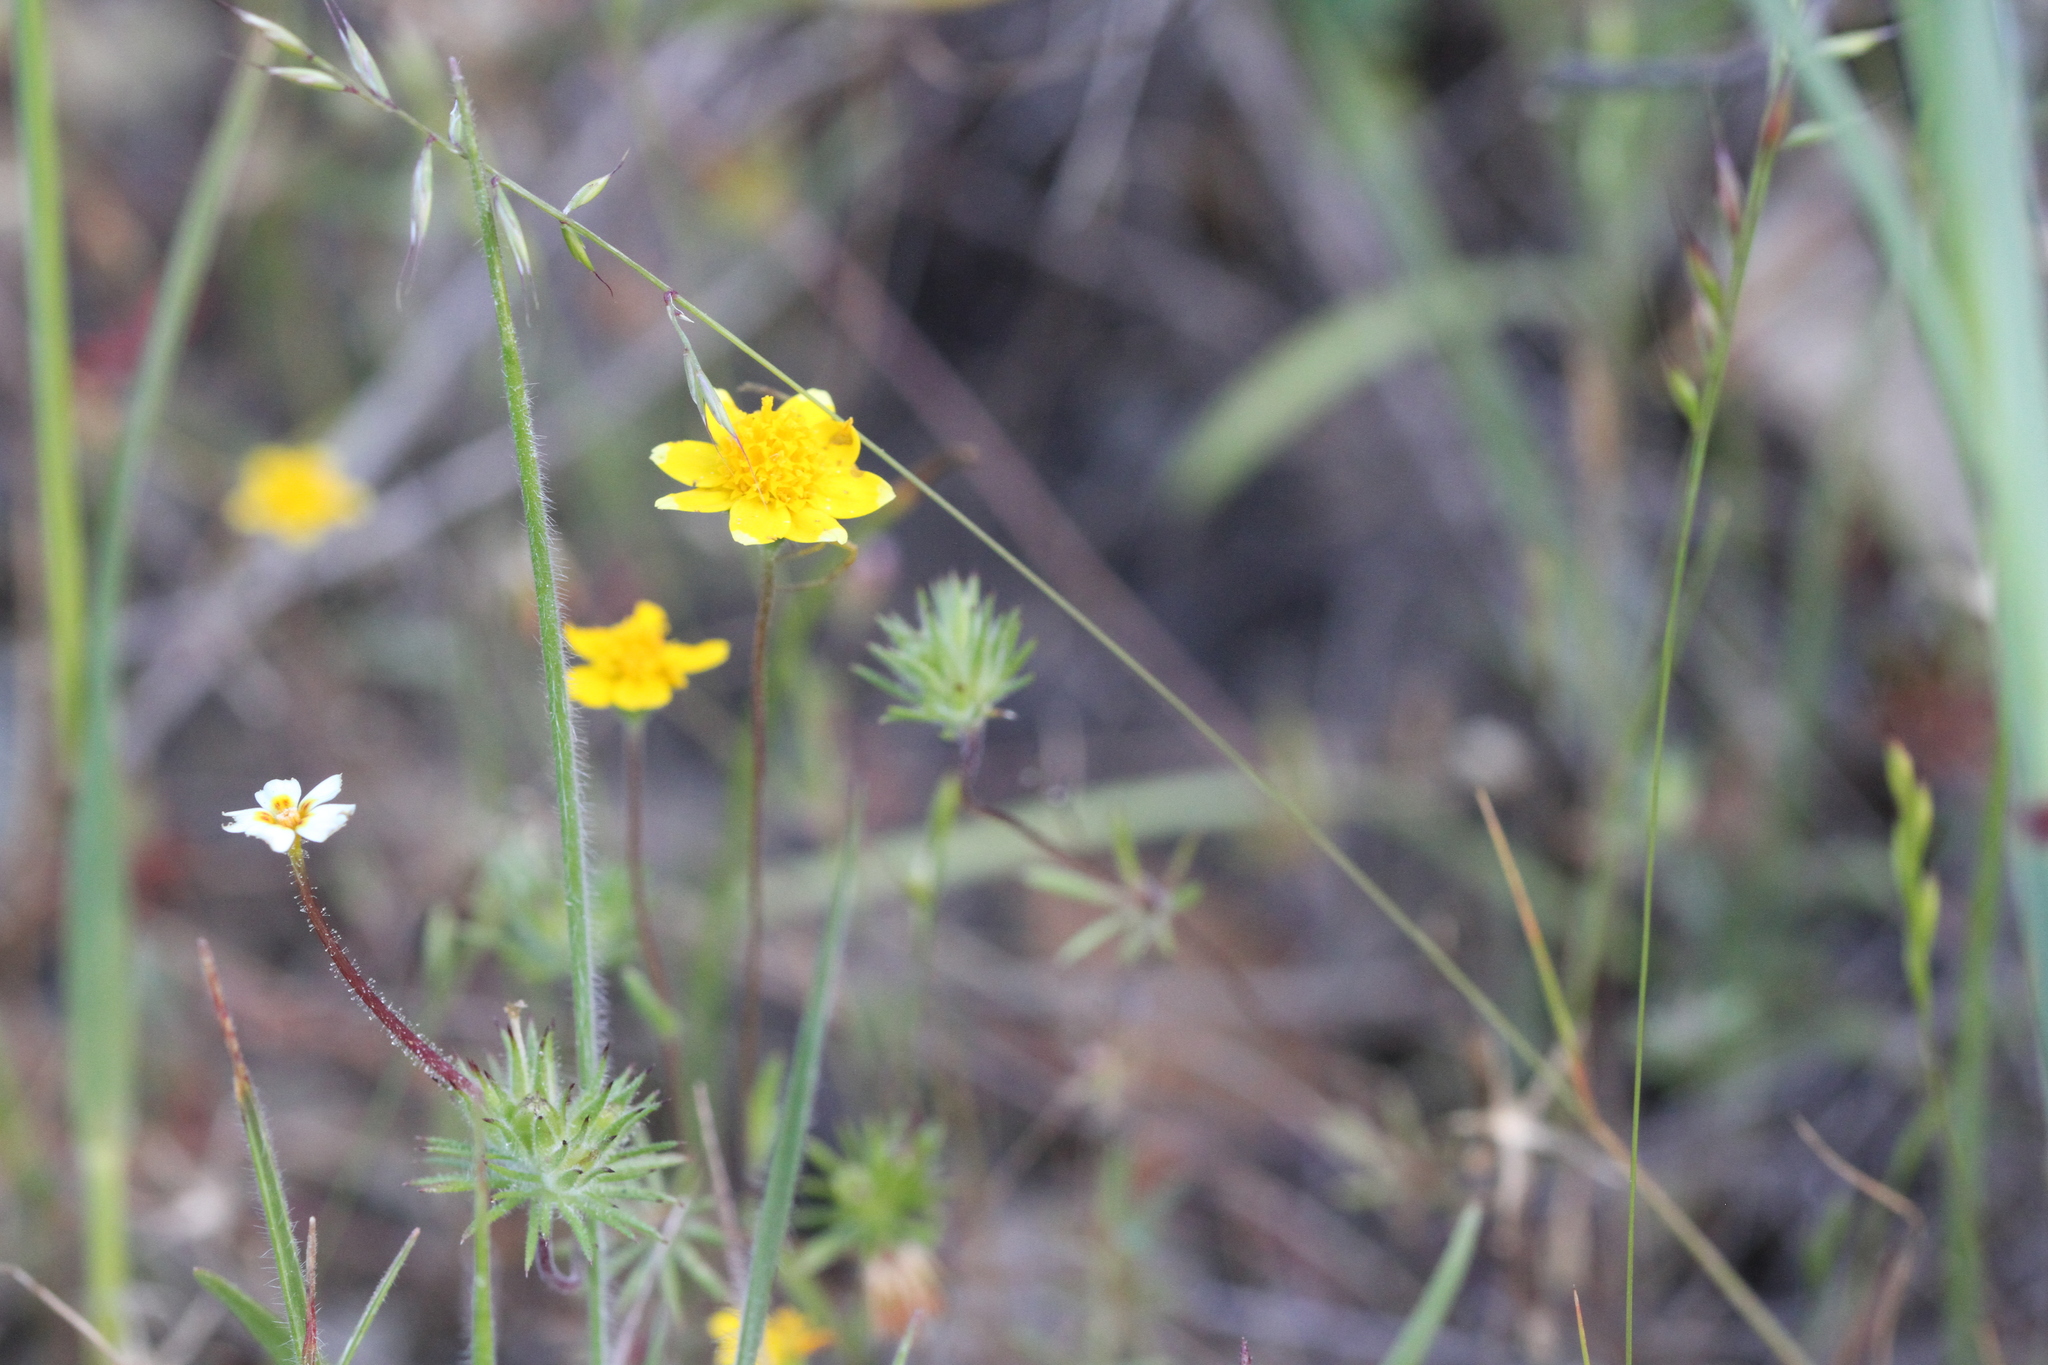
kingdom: Plantae
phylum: Tracheophyta
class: Magnoliopsida
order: Asterales
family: Asteraceae
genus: Lasthenia
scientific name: Lasthenia californica
